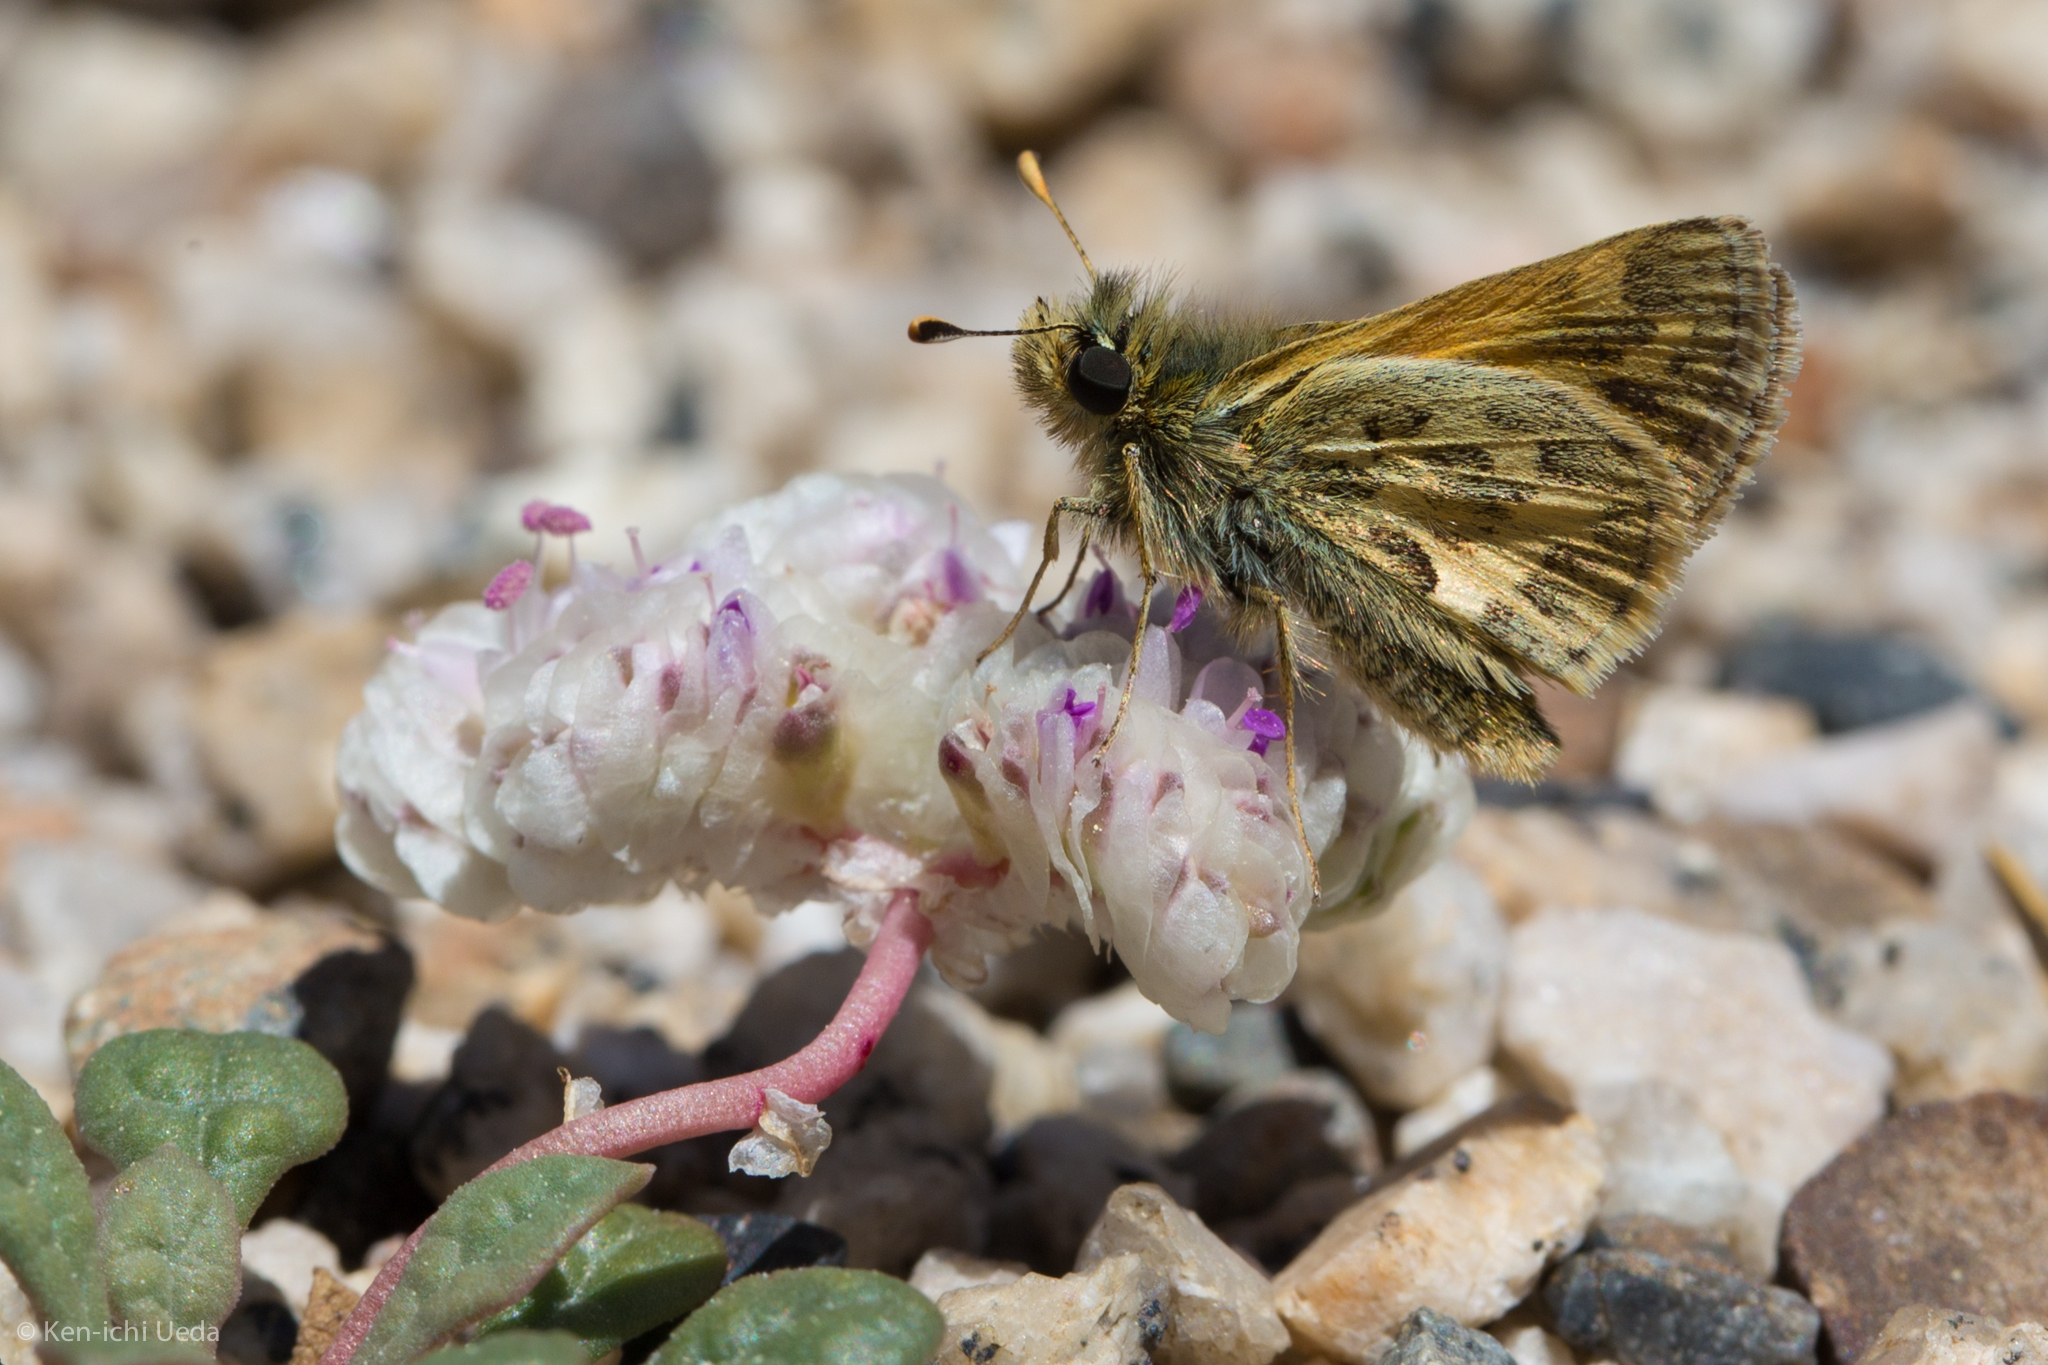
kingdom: Animalia
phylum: Arthropoda
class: Insecta
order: Lepidoptera
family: Hesperiidae
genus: Polites
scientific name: Polites sabuleti
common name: Sandhill skipper
